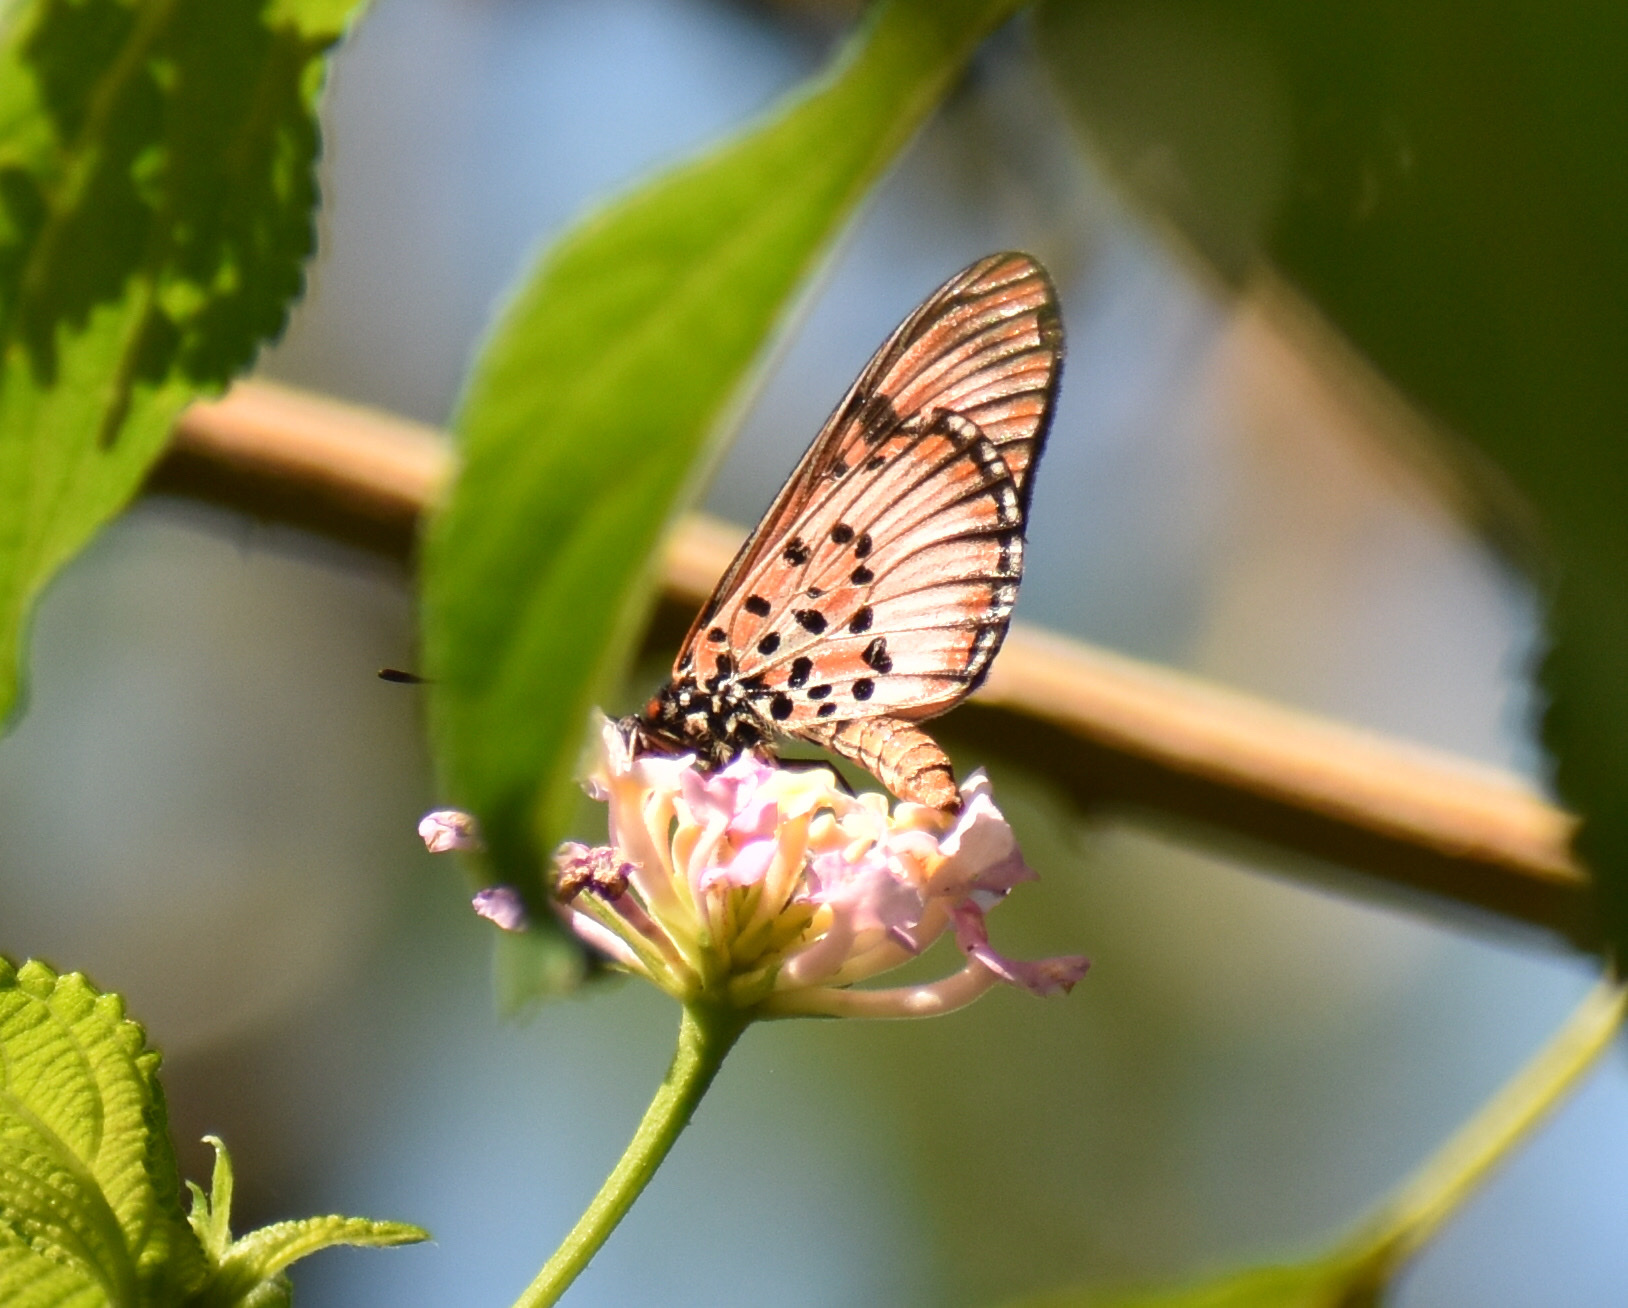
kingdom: Animalia
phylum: Arthropoda
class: Insecta
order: Lepidoptera
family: Nymphalidae
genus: Rubraea
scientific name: Rubraea
